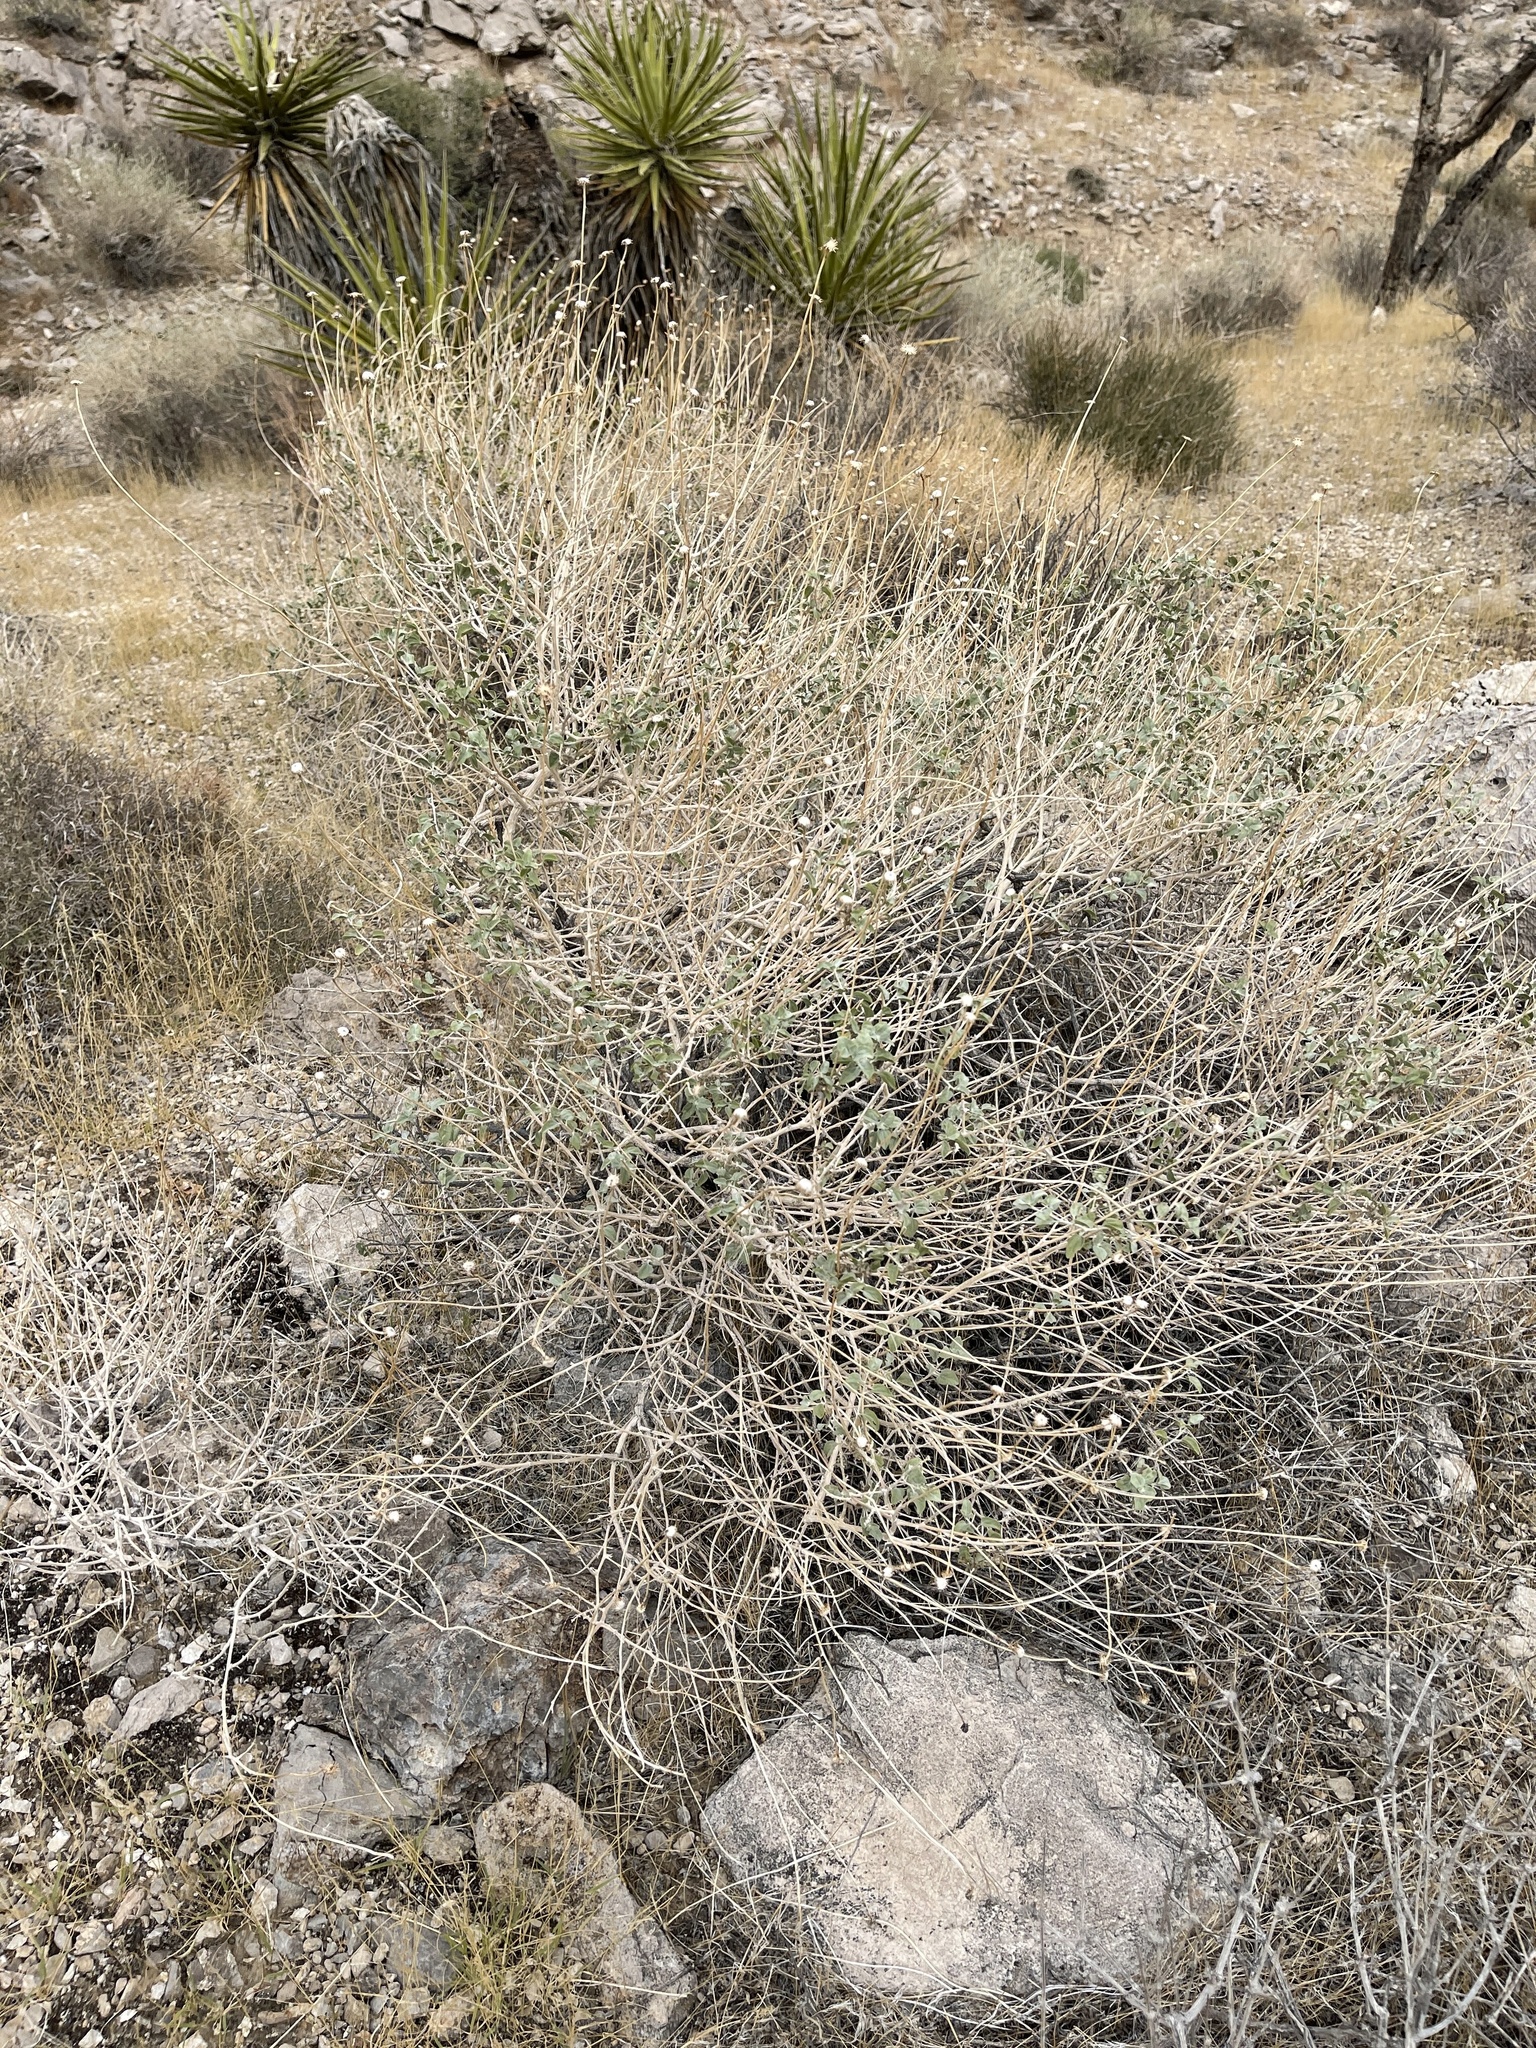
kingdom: Plantae
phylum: Tracheophyta
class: Magnoliopsida
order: Asterales
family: Asteraceae
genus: Encelia
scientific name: Encelia farinosa
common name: Brittlebush
